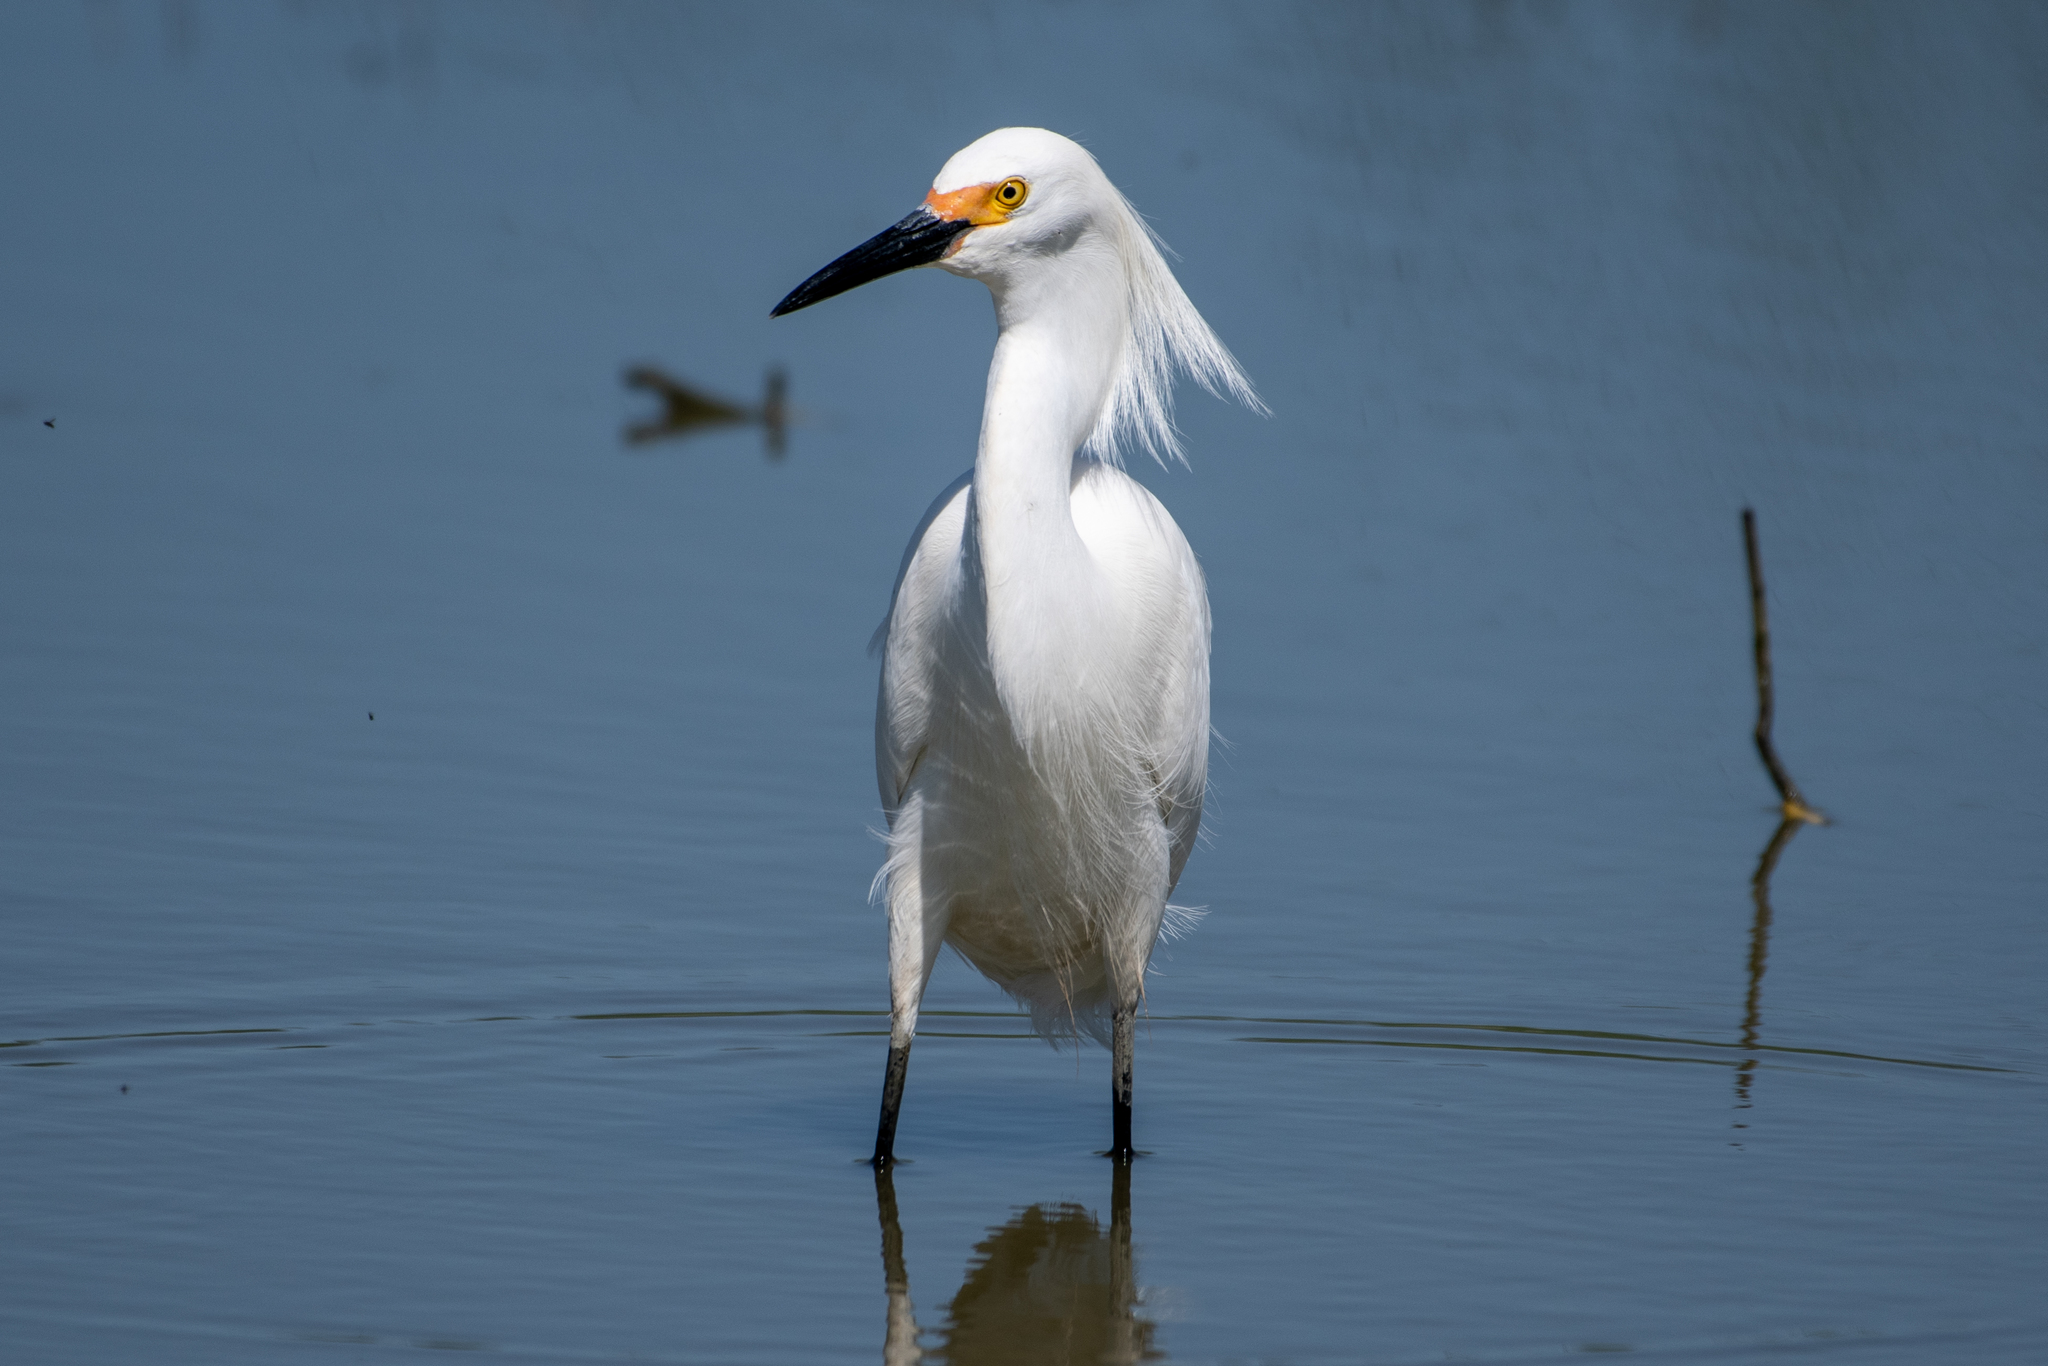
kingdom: Animalia
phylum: Chordata
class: Aves
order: Pelecaniformes
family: Ardeidae
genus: Egretta
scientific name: Egretta thula
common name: Snowy egret
